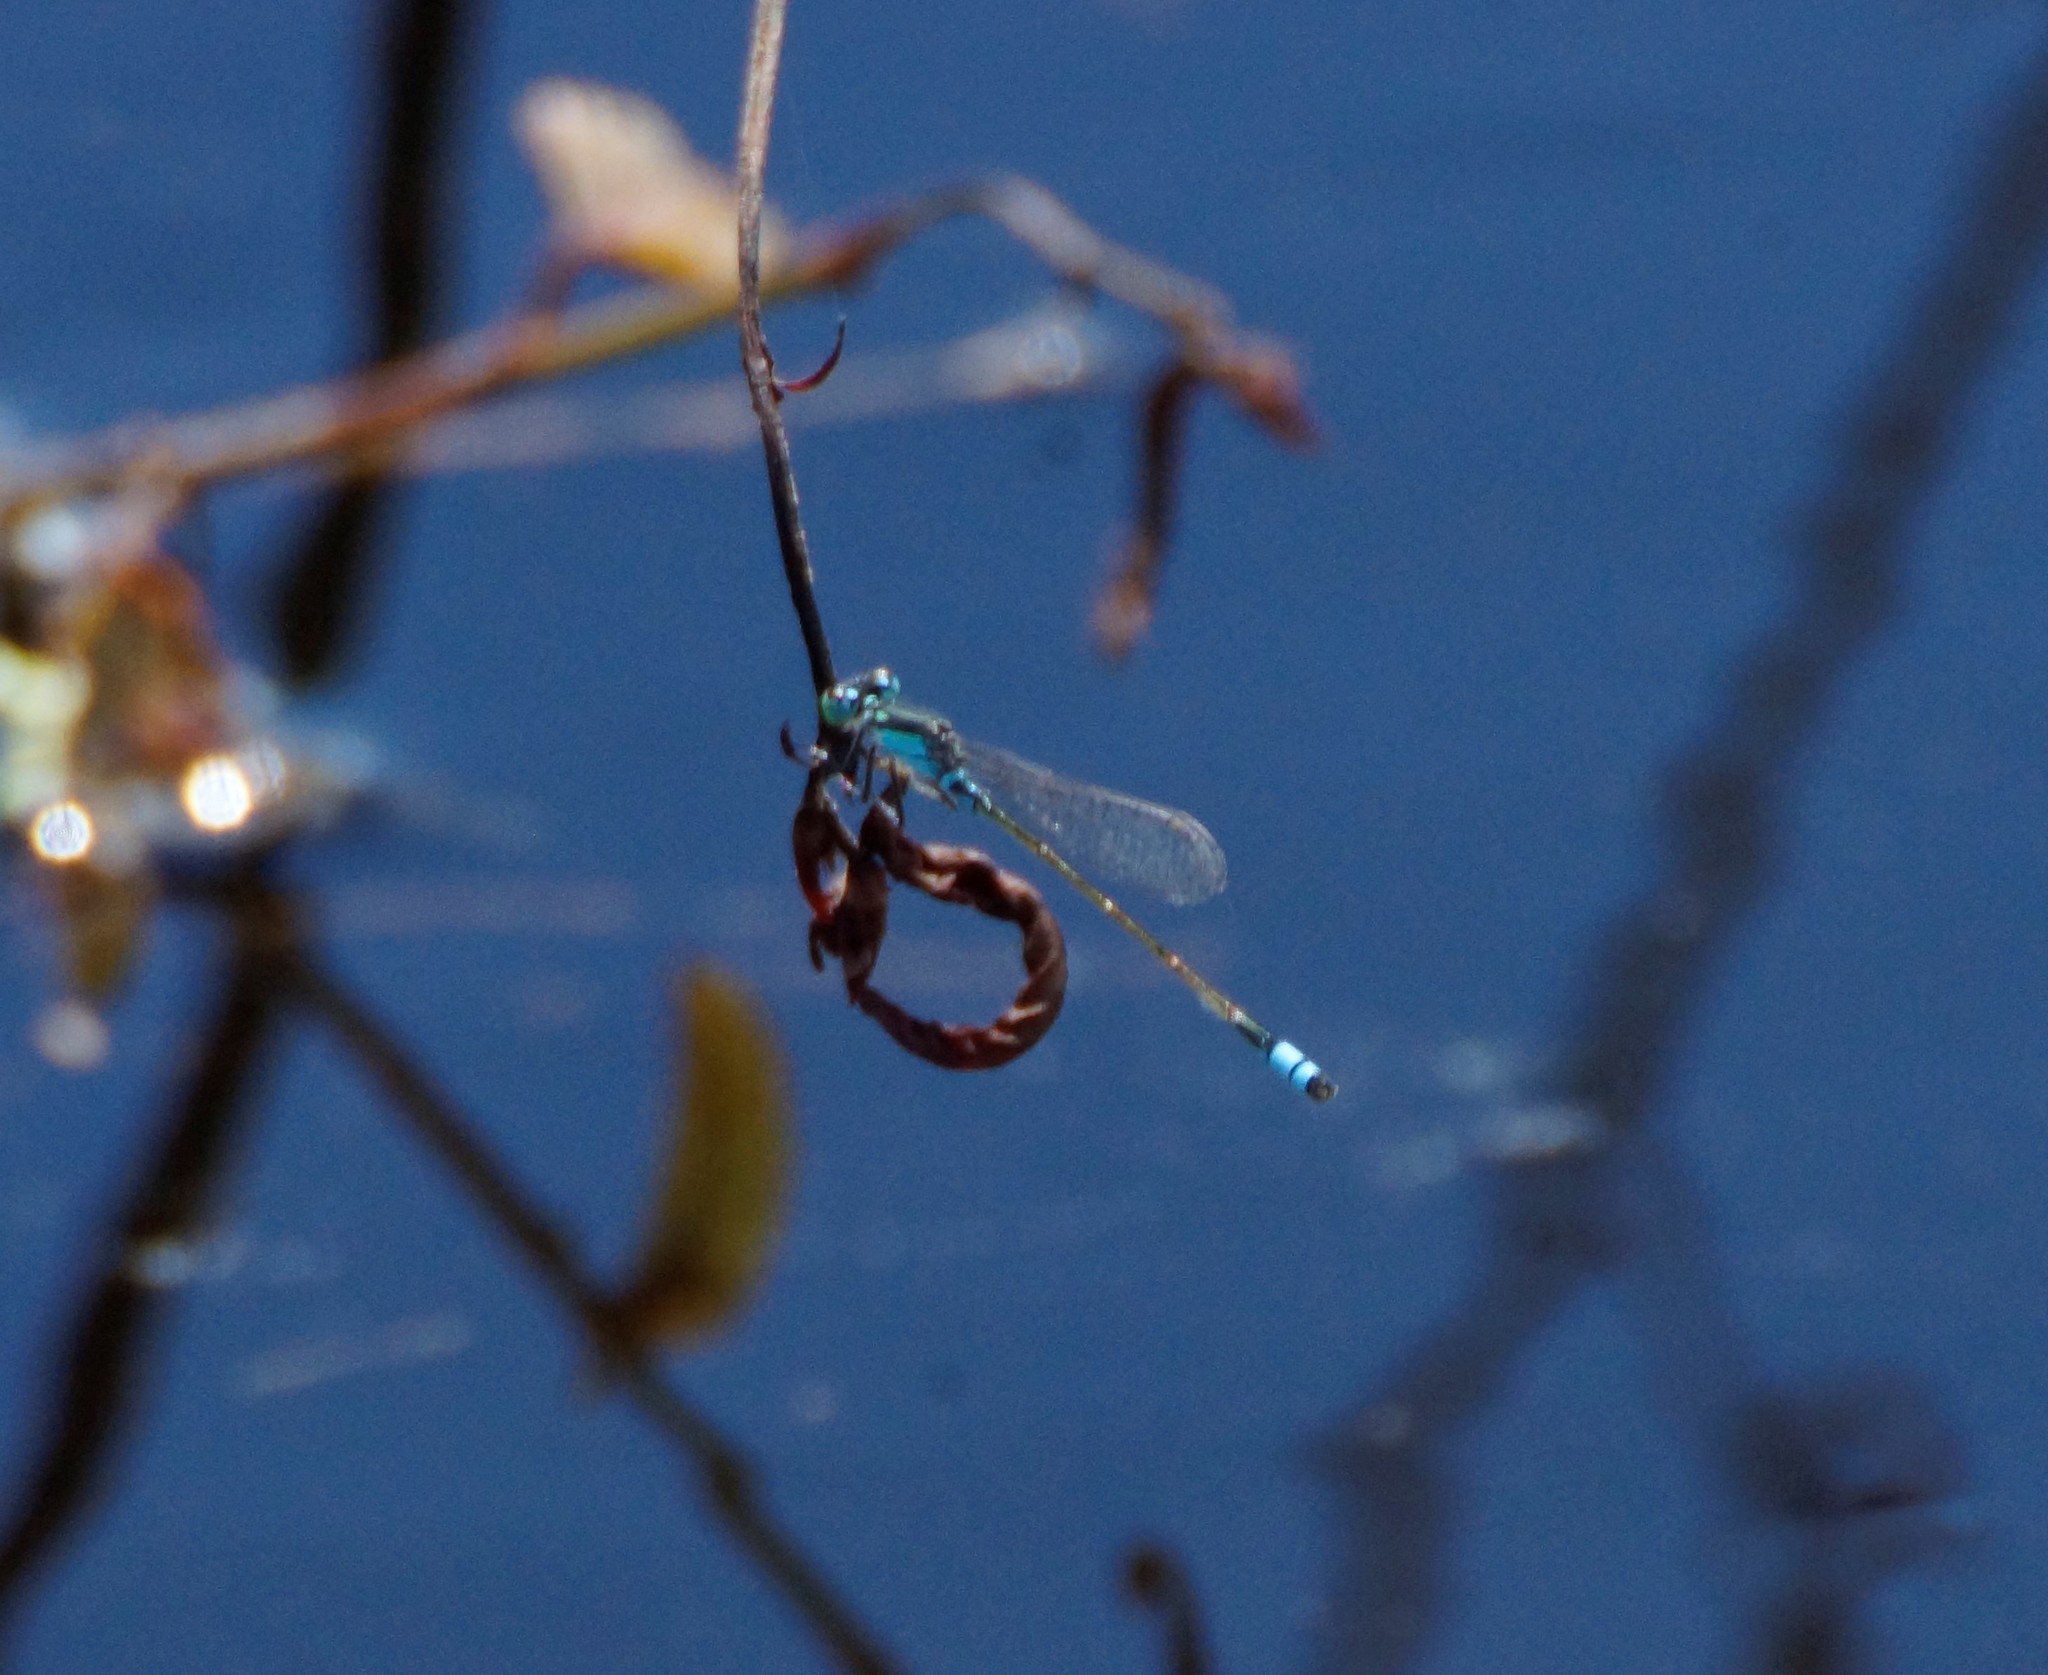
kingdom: Animalia
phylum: Arthropoda
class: Insecta
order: Odonata
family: Coenagrionidae
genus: Ischnura
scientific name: Ischnura heterosticta
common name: Common bluetail
